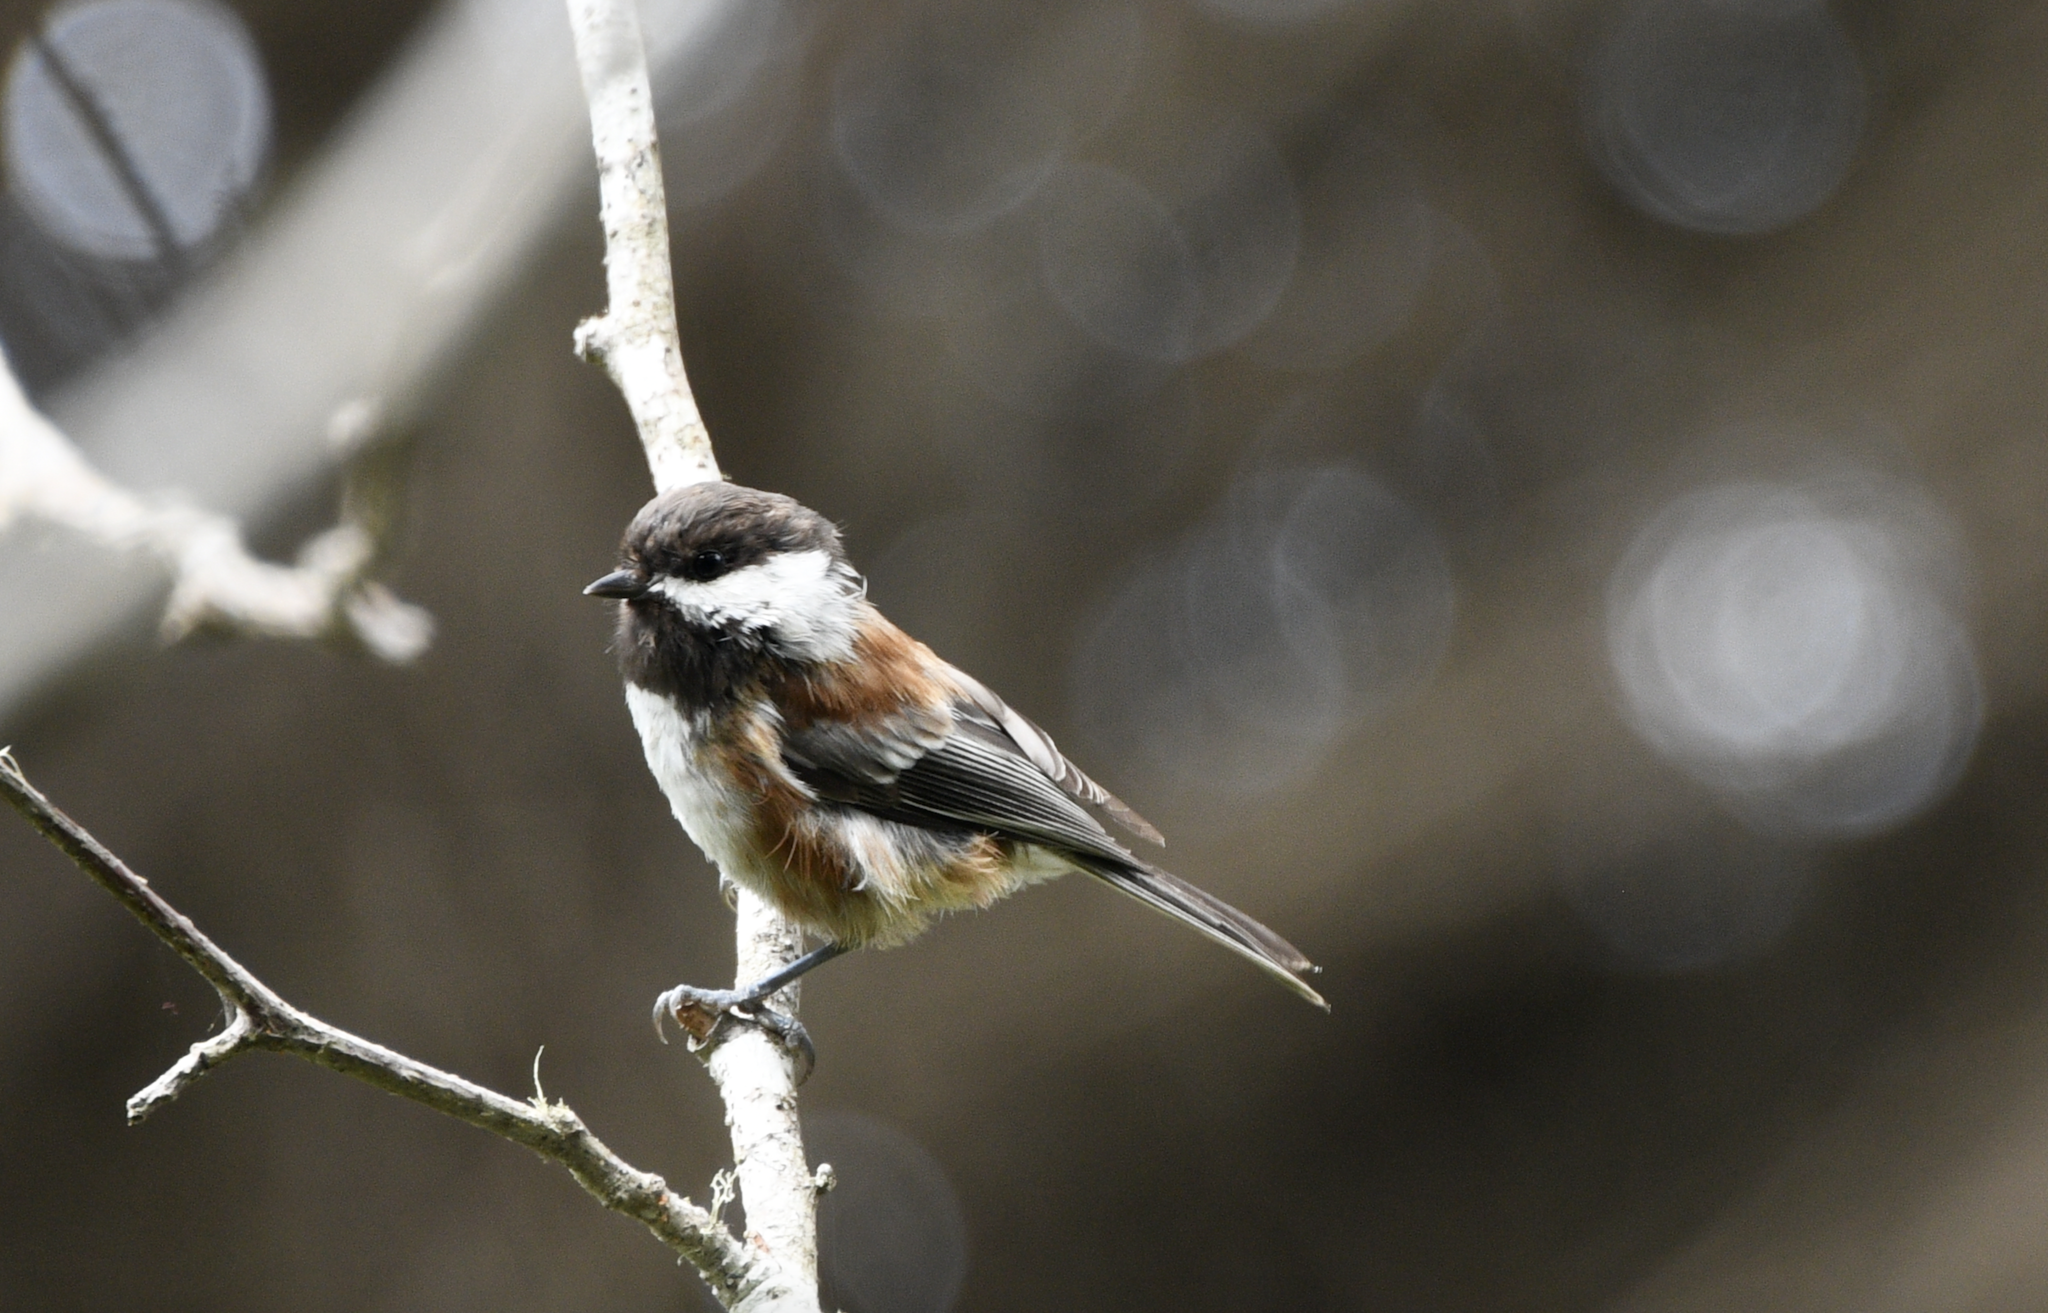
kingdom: Animalia
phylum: Chordata
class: Aves
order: Passeriformes
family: Paridae
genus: Poecile
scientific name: Poecile rufescens
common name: Chestnut-backed chickadee
